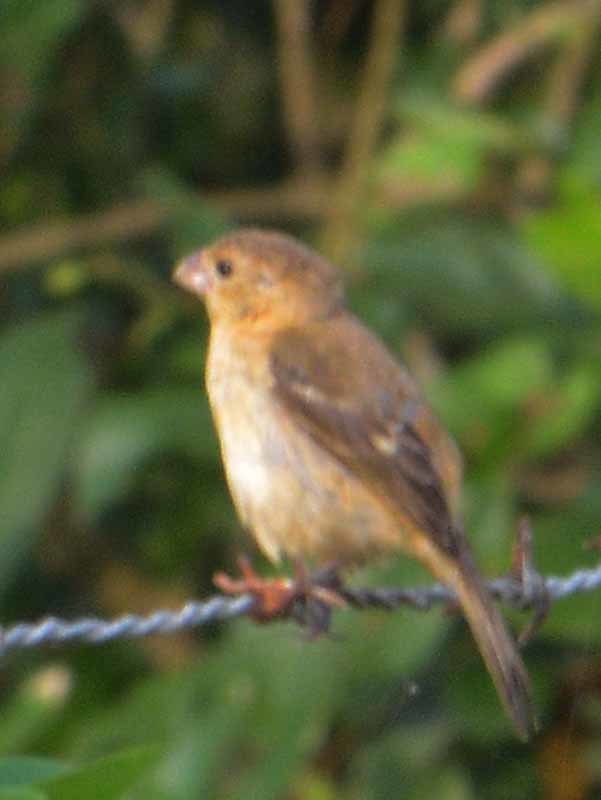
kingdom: Animalia
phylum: Chordata
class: Aves
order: Passeriformes
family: Thraupidae
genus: Sporophila
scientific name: Sporophila morelleti
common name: Morelet's seedeater
